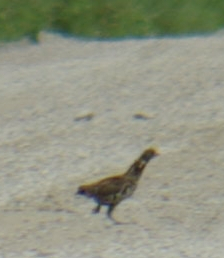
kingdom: Animalia
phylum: Chordata
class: Aves
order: Galliformes
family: Phasianidae
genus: Bonasa
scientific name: Bonasa umbellus
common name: Ruffed grouse
